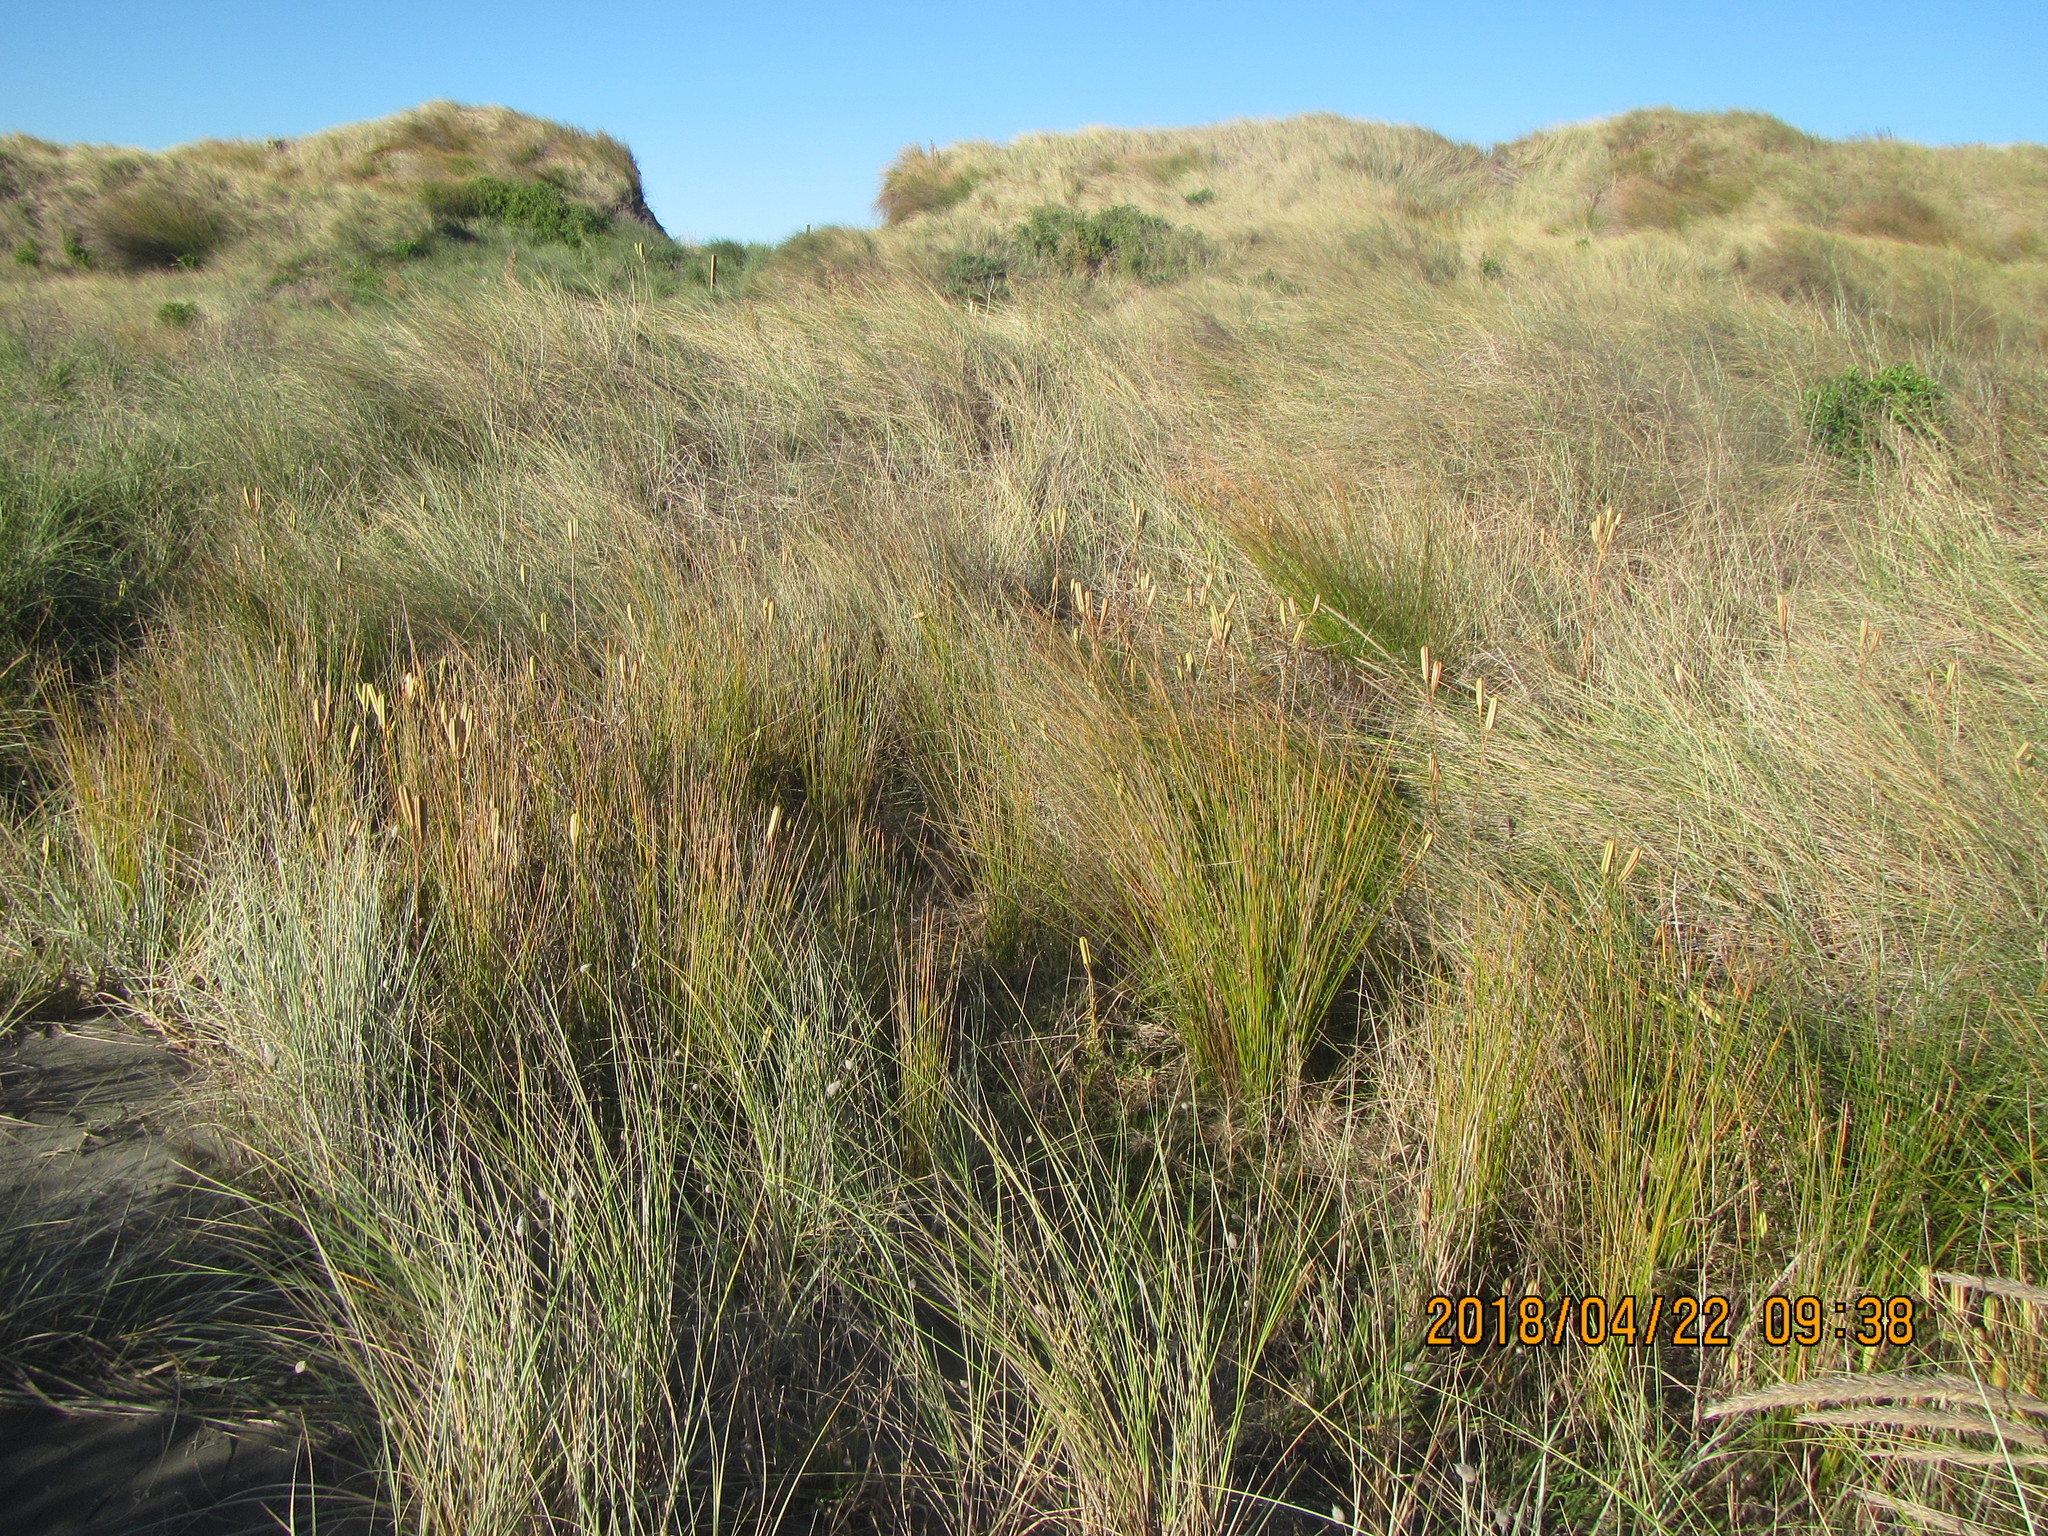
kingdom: Plantae
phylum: Tracheophyta
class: Liliopsida
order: Liliales
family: Liliaceae
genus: Lilium
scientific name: Lilium formosanum
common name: Formosa lily
